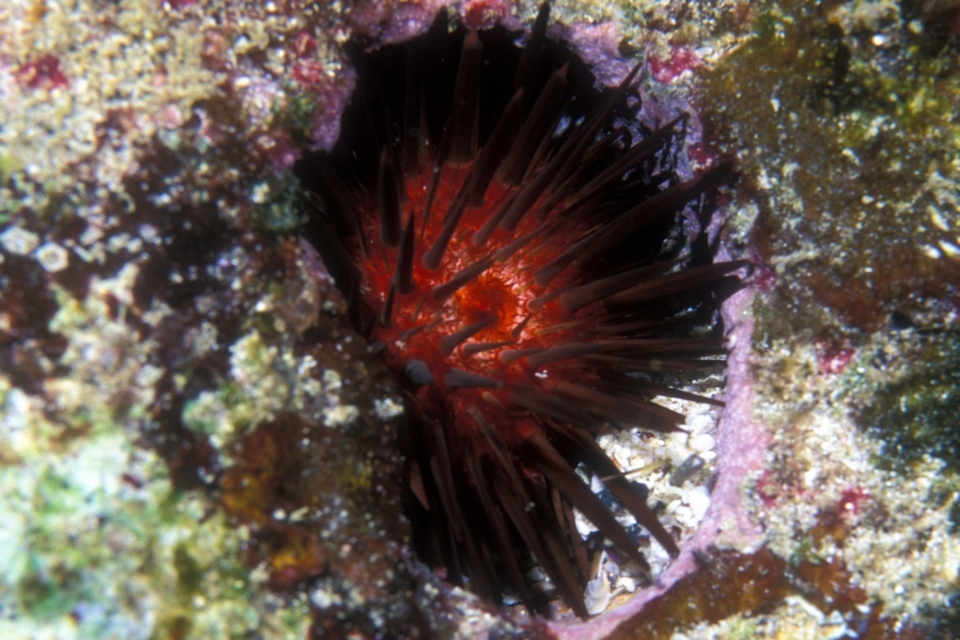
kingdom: Animalia
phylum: Echinodermata
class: Echinoidea
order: Camarodonta
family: Echinometridae
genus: Echinometra
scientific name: Echinometra lucunter
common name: Rock urchin
